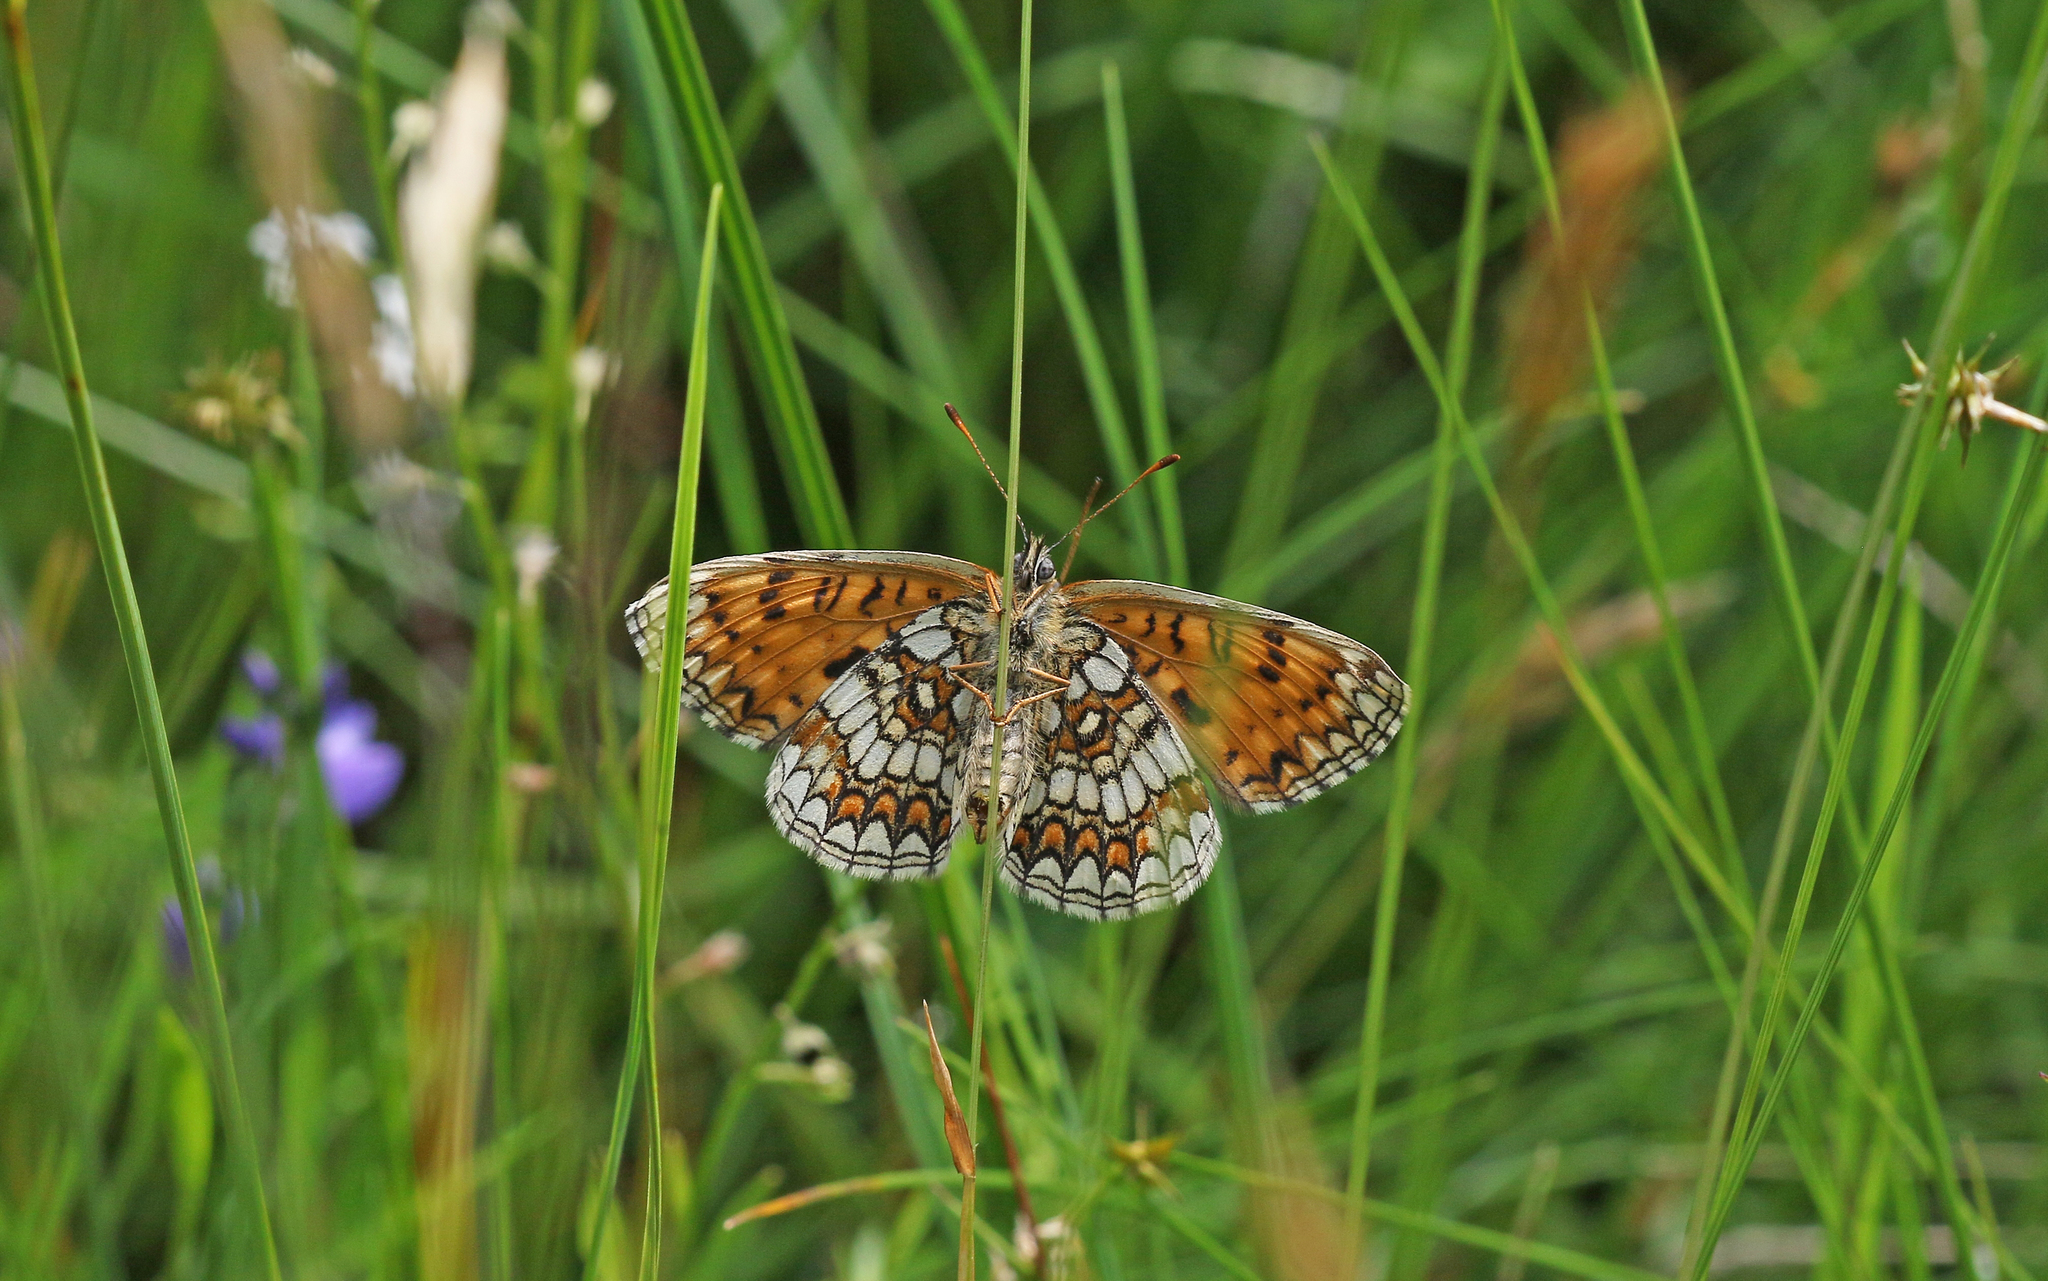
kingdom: Animalia
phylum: Arthropoda
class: Insecta
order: Lepidoptera
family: Nymphalidae
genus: Melitaea
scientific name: Melitaea athalia
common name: Heath fritillary
